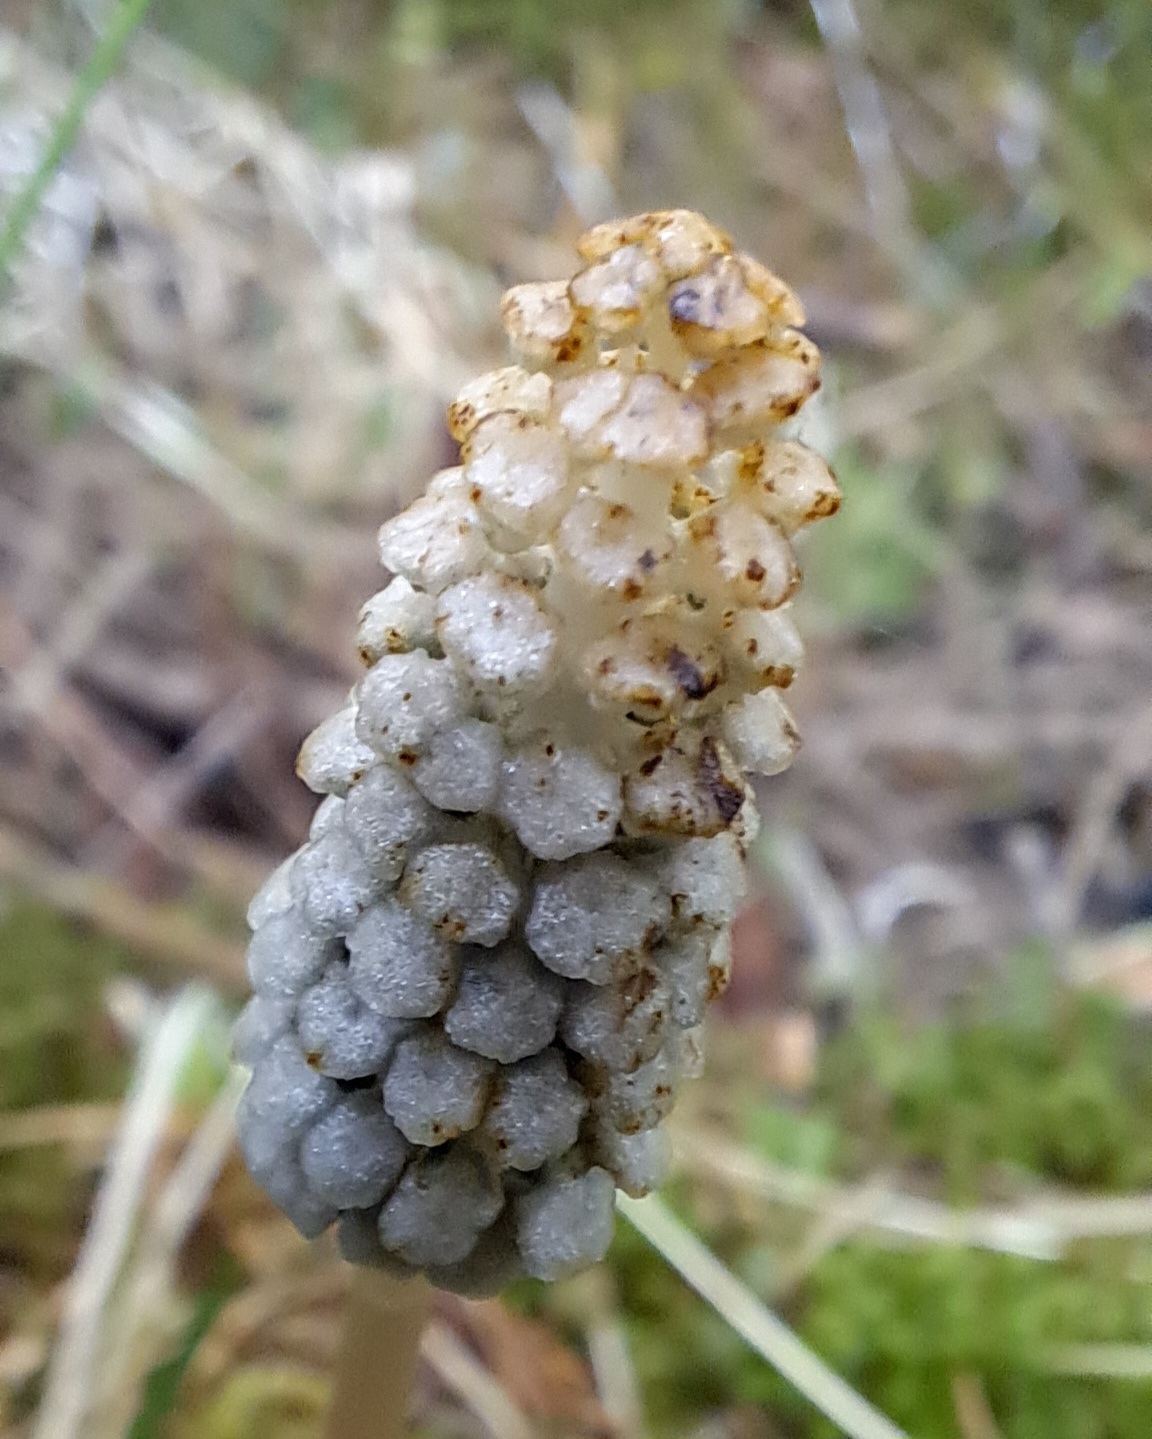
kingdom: Plantae
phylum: Tracheophyta
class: Polypodiopsida
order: Equisetales
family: Equisetaceae
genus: Equisetum
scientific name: Equisetum sylvaticum
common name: Wood horsetail
